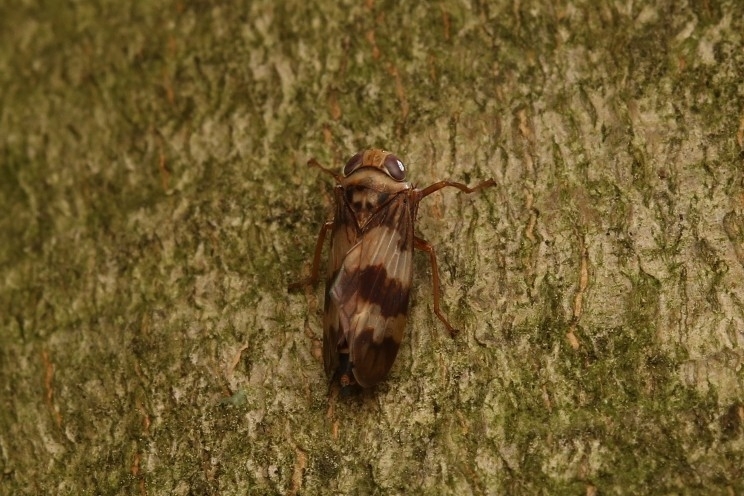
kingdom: Animalia
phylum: Arthropoda
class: Insecta
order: Hemiptera
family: Cicadellidae
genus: Jikradia
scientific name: Jikradia olitoria
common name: Coppery leafhopper
